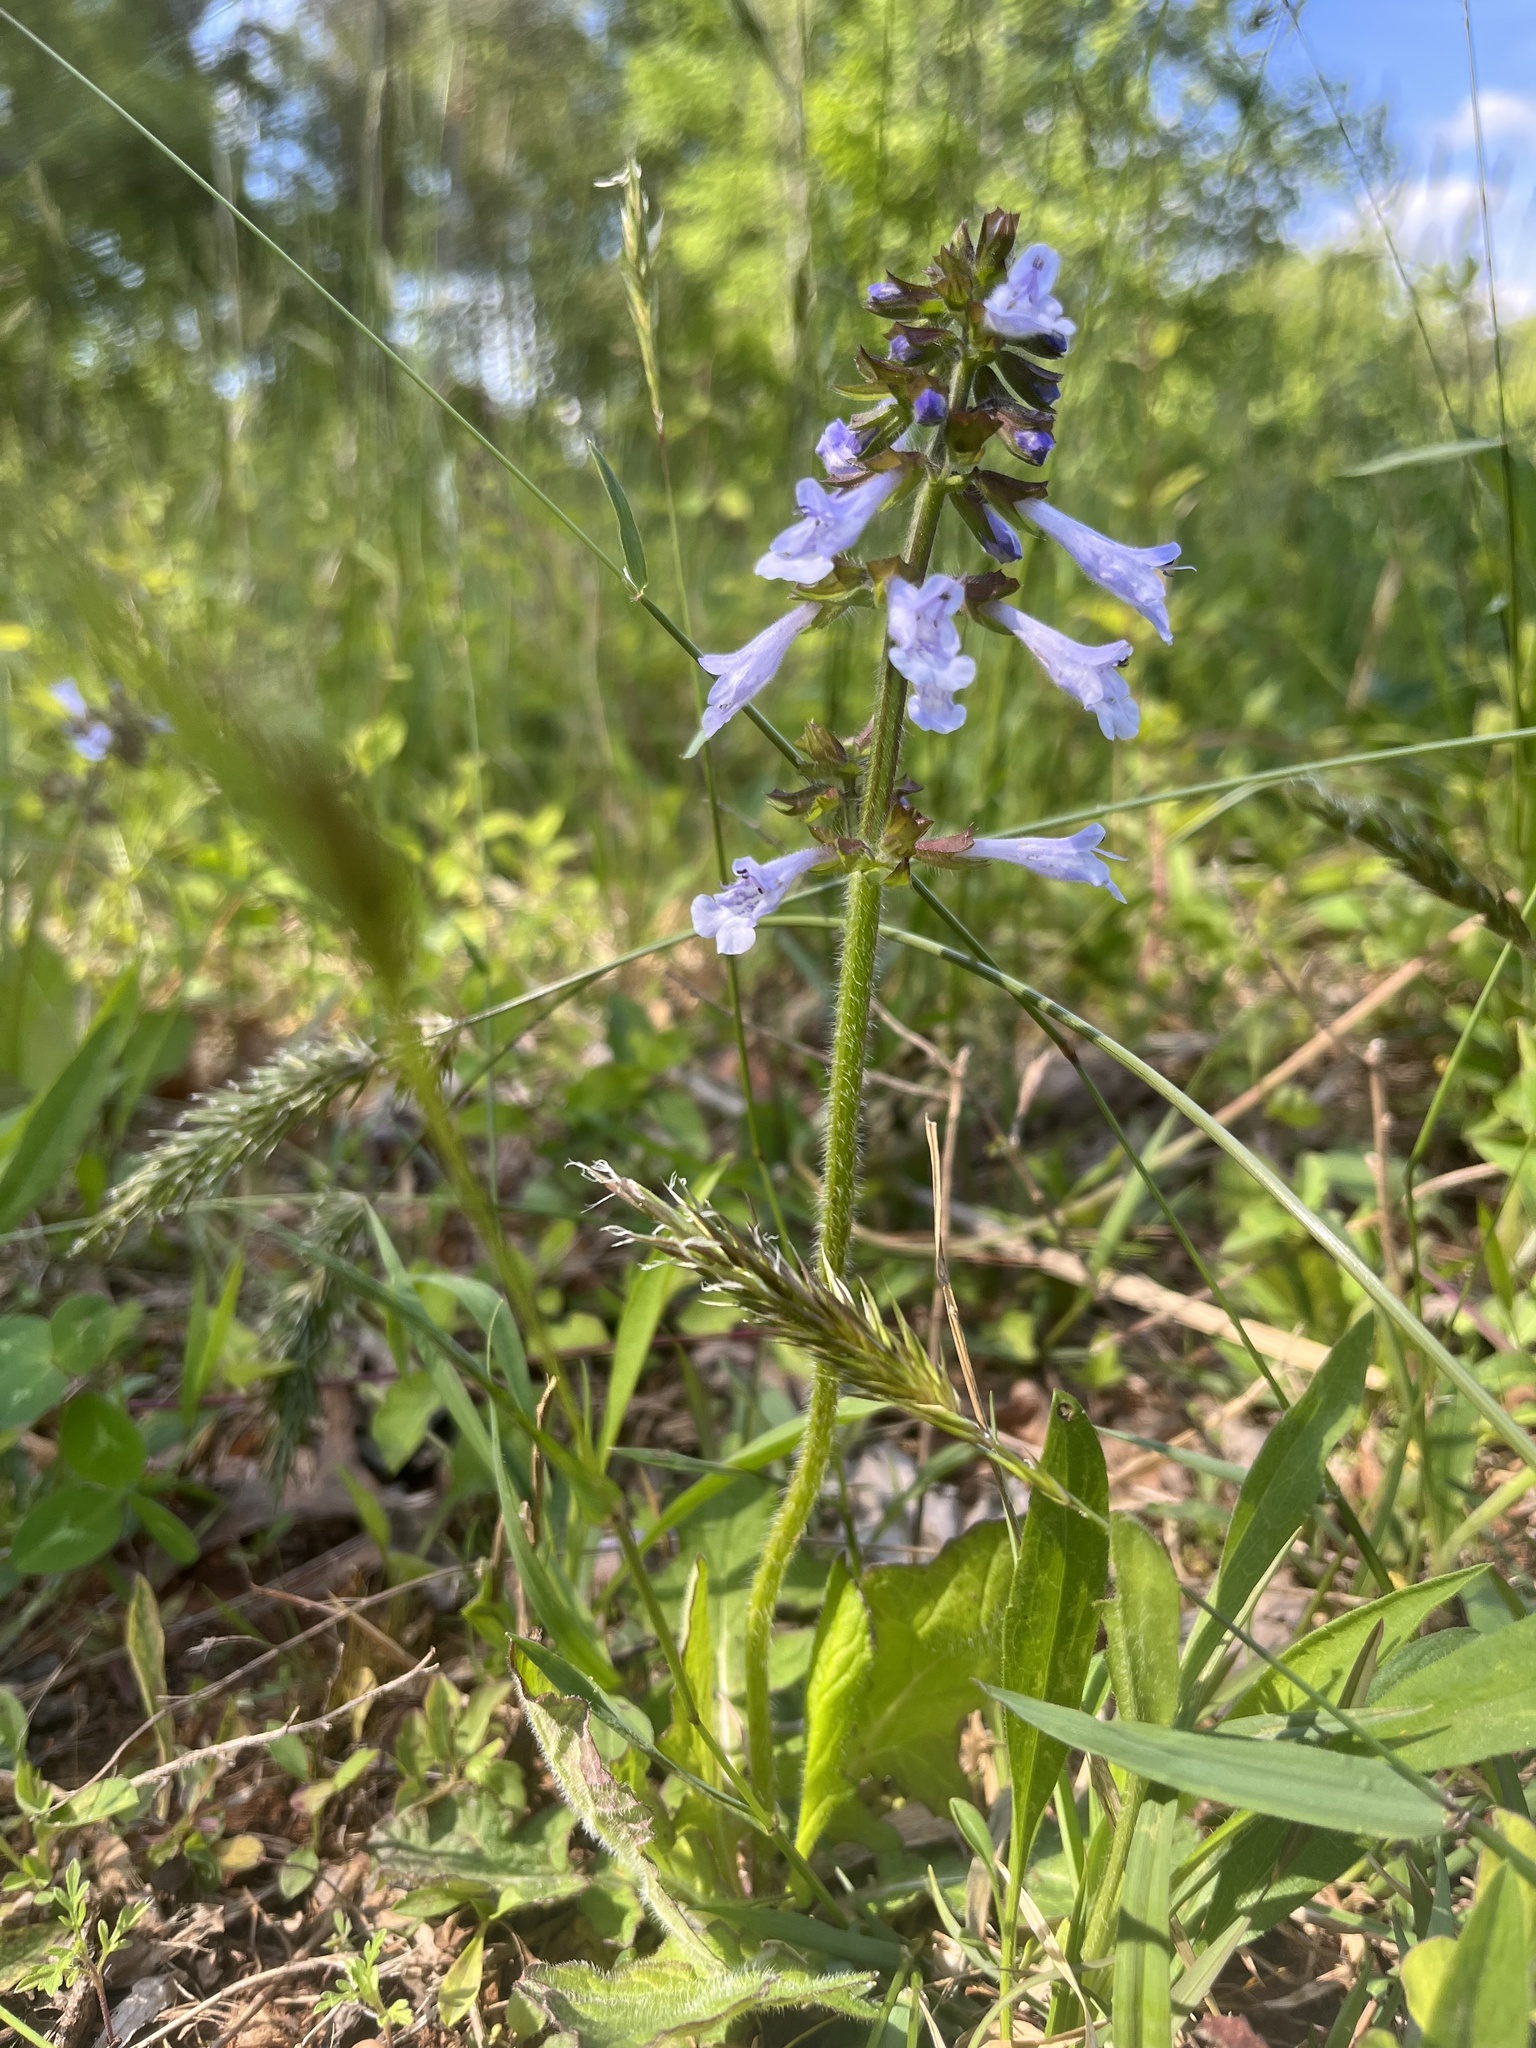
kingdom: Plantae
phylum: Tracheophyta
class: Magnoliopsida
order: Lamiales
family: Lamiaceae
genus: Salvia
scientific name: Salvia lyrata
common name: Cancerweed
